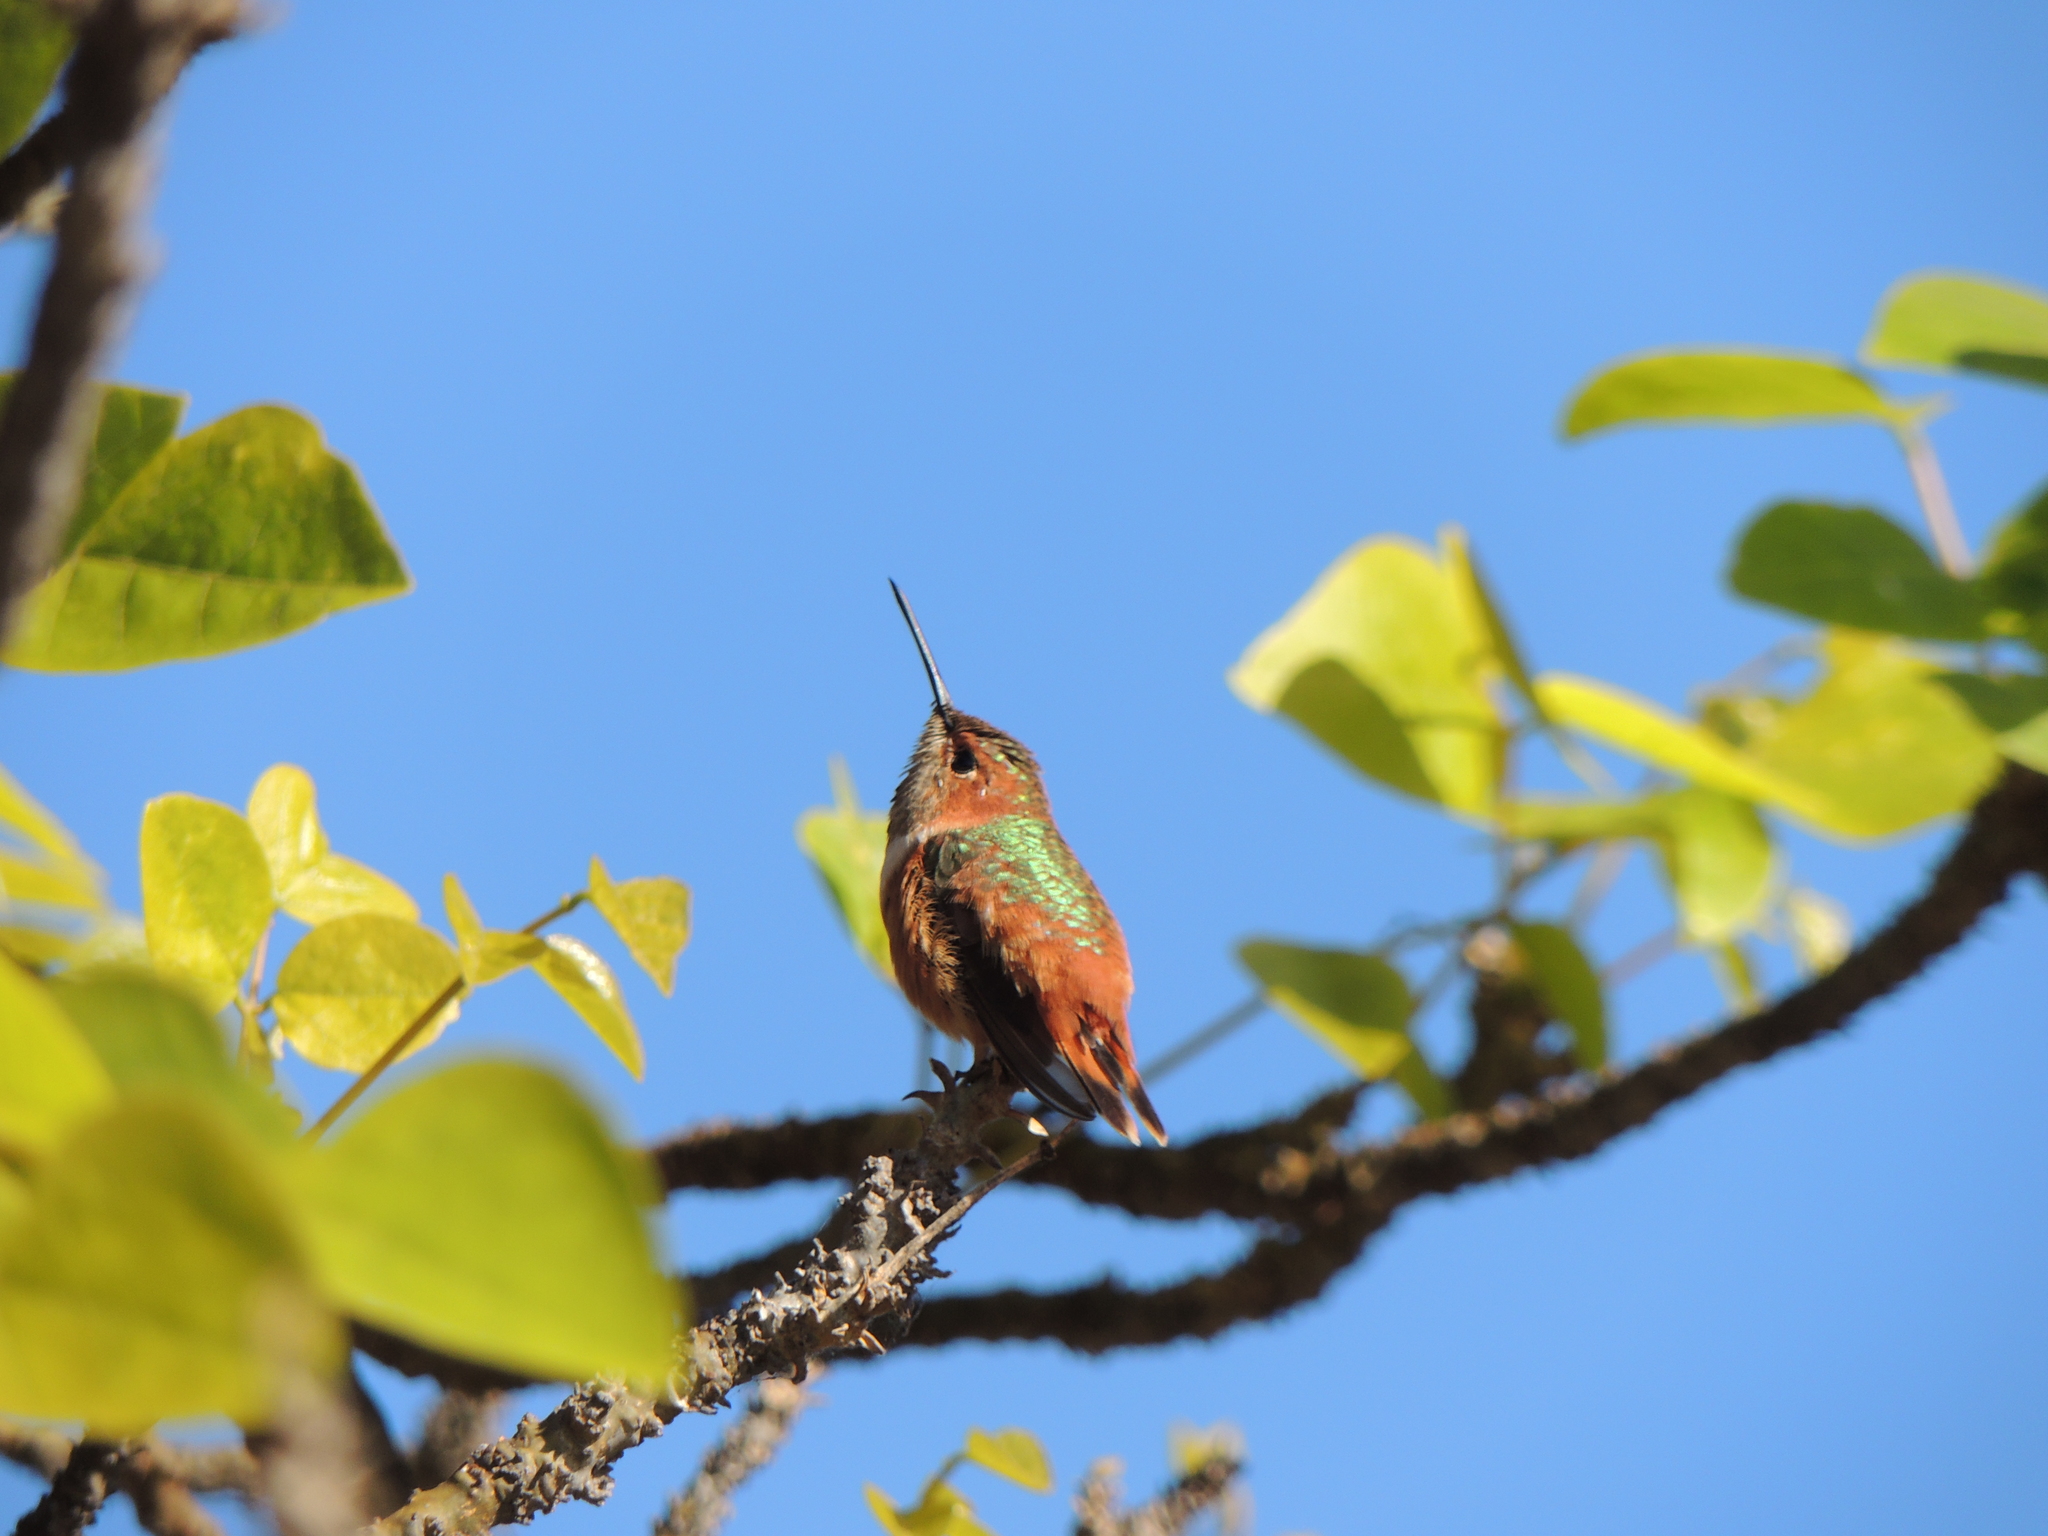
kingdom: Animalia
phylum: Chordata
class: Aves
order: Apodiformes
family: Trochilidae
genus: Selasphorus
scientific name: Selasphorus sasin
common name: Allen's hummingbird
